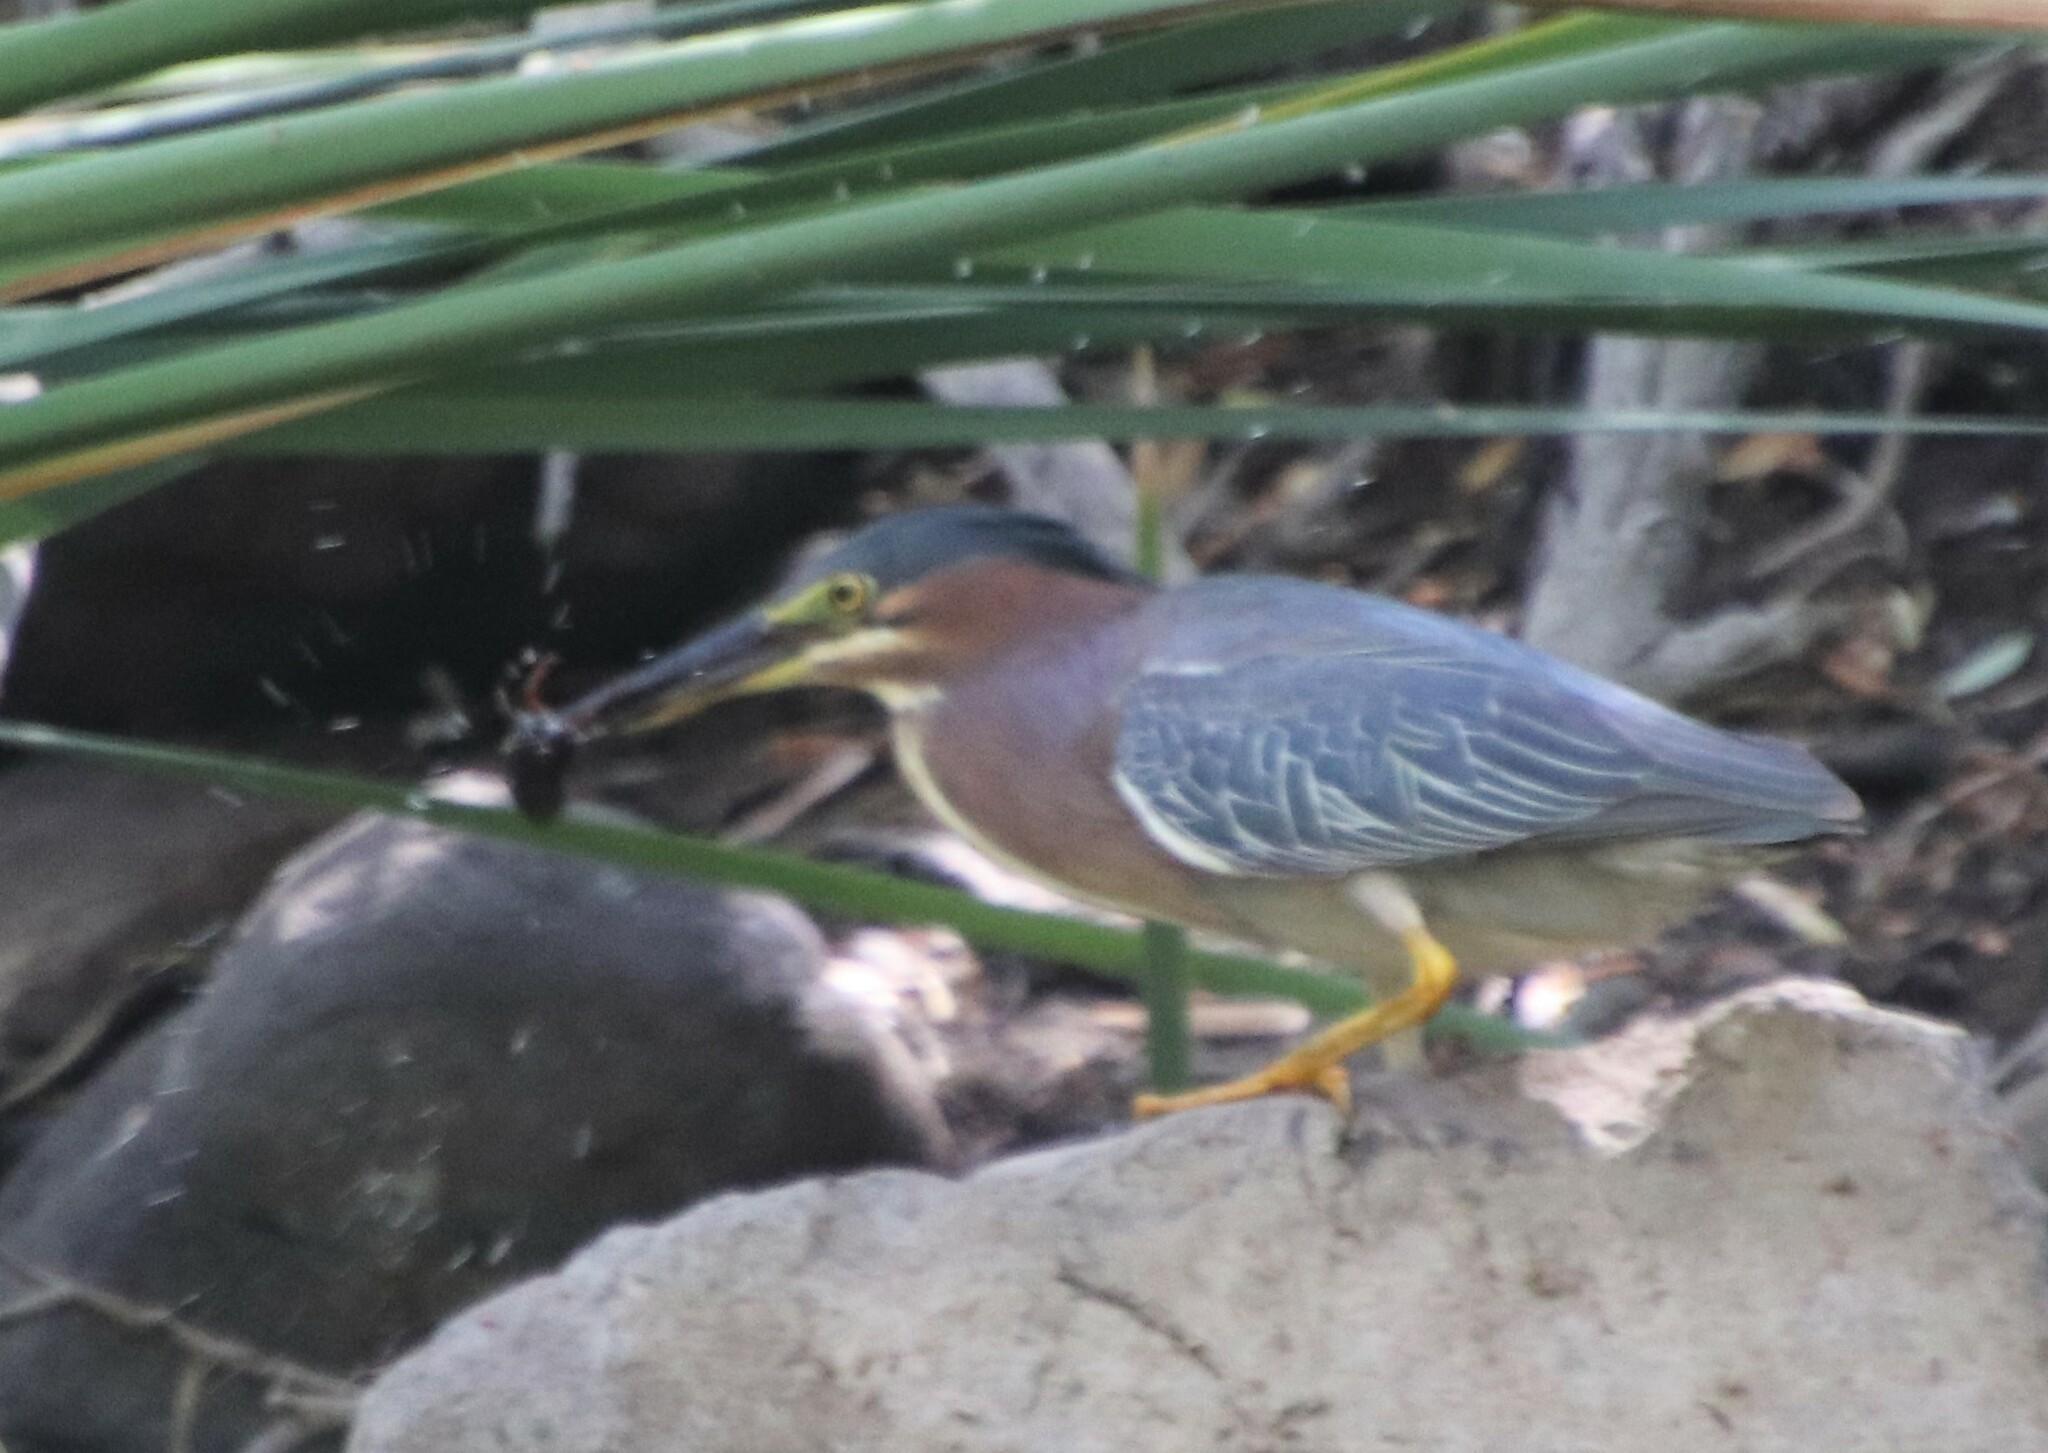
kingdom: Animalia
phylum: Chordata
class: Aves
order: Pelecaniformes
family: Ardeidae
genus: Butorides
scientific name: Butorides virescens
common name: Green heron
